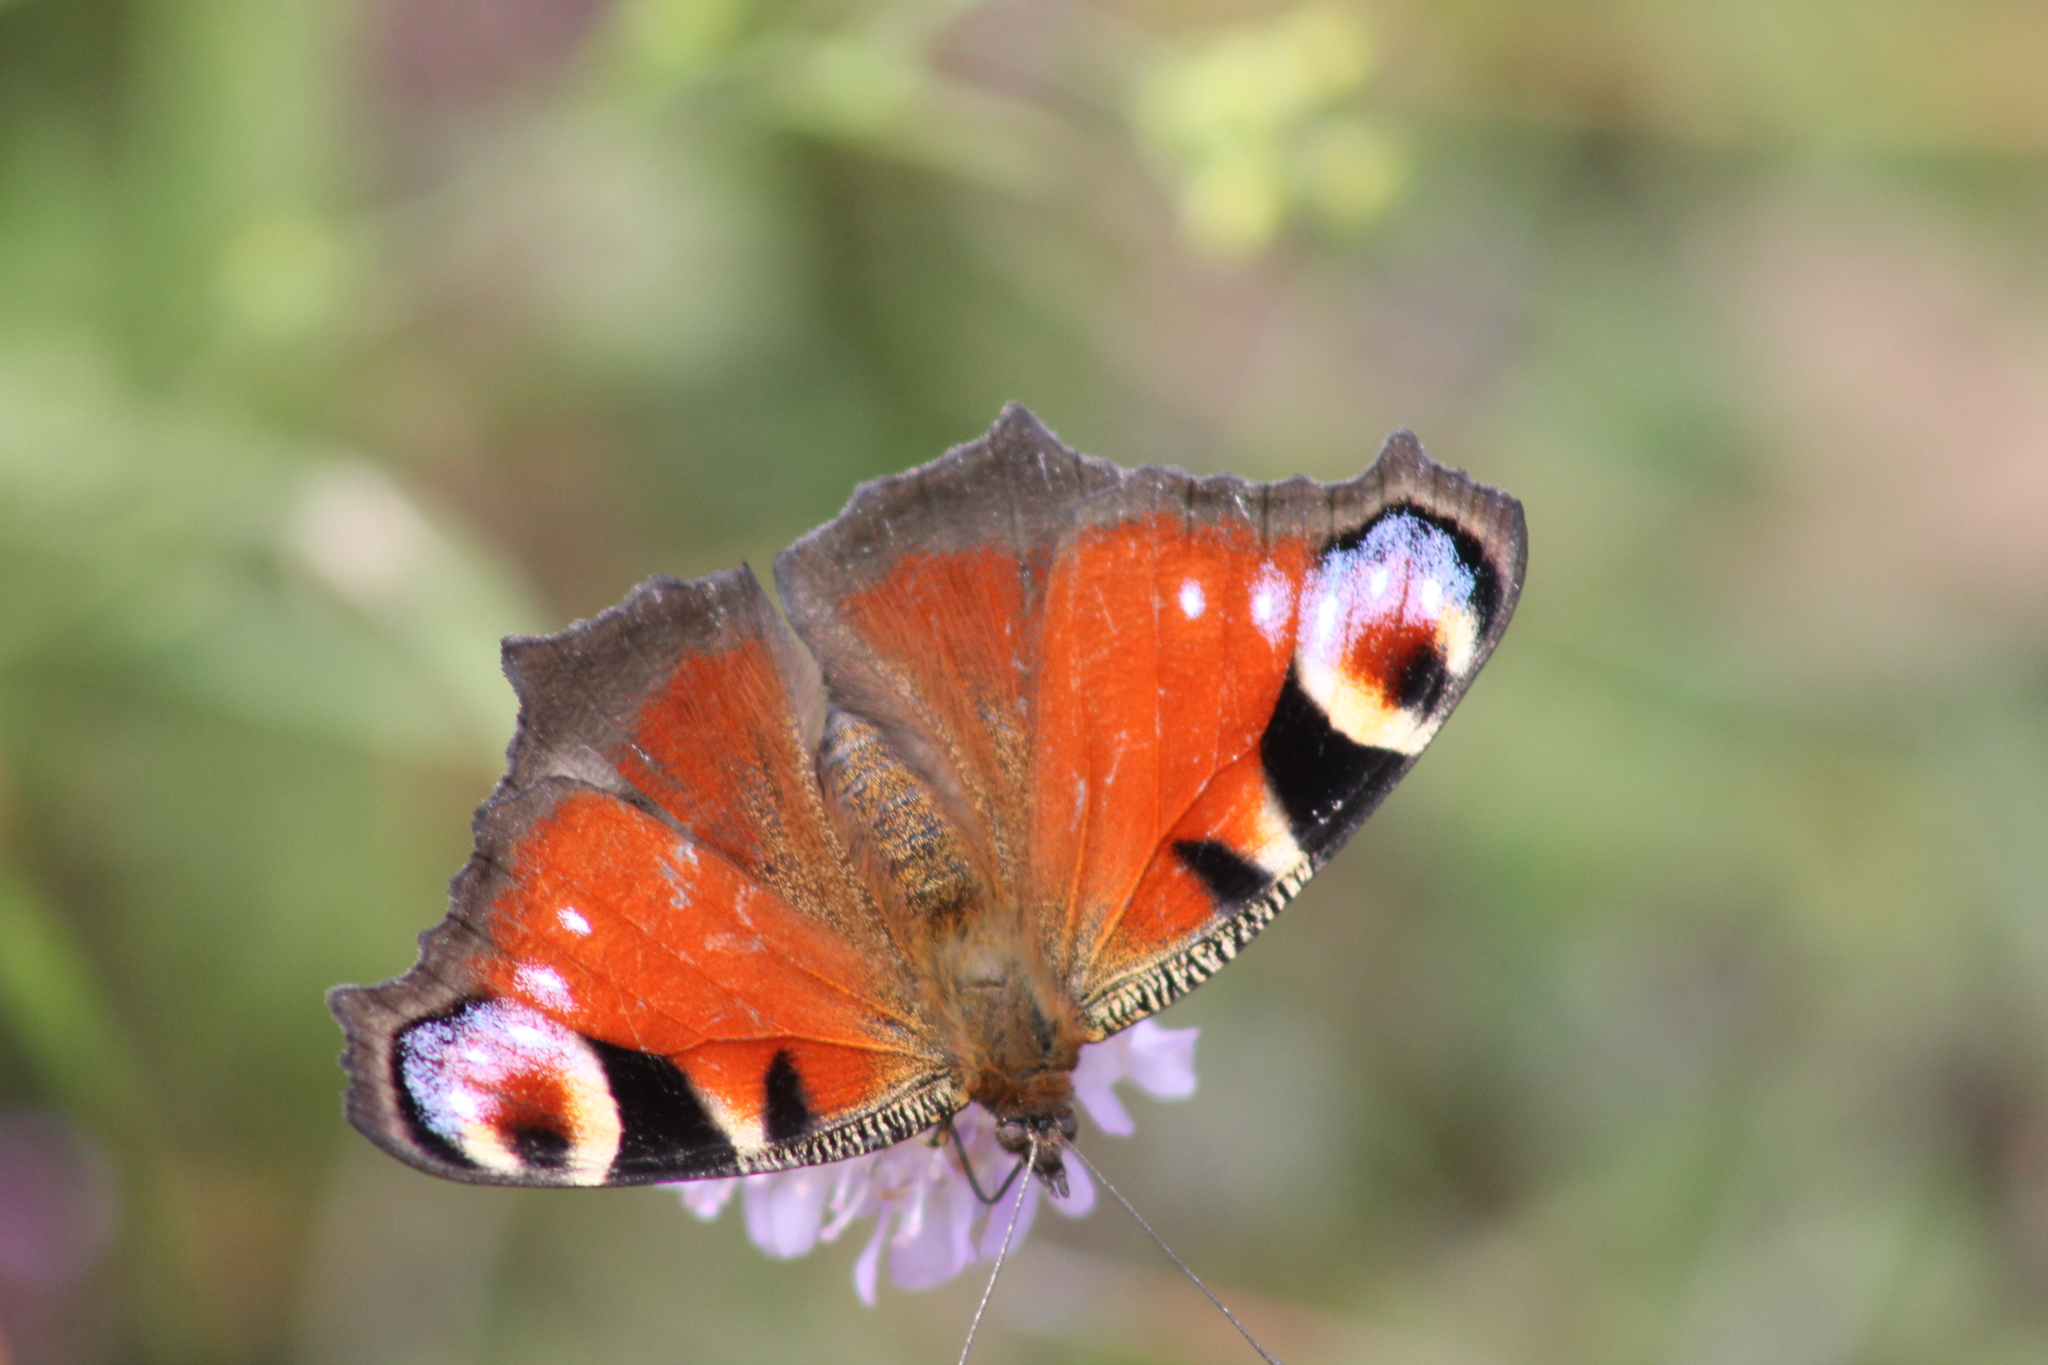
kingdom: Animalia
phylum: Arthropoda
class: Insecta
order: Lepidoptera
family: Nymphalidae
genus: Aglais
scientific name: Aglais io
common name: Peacock
